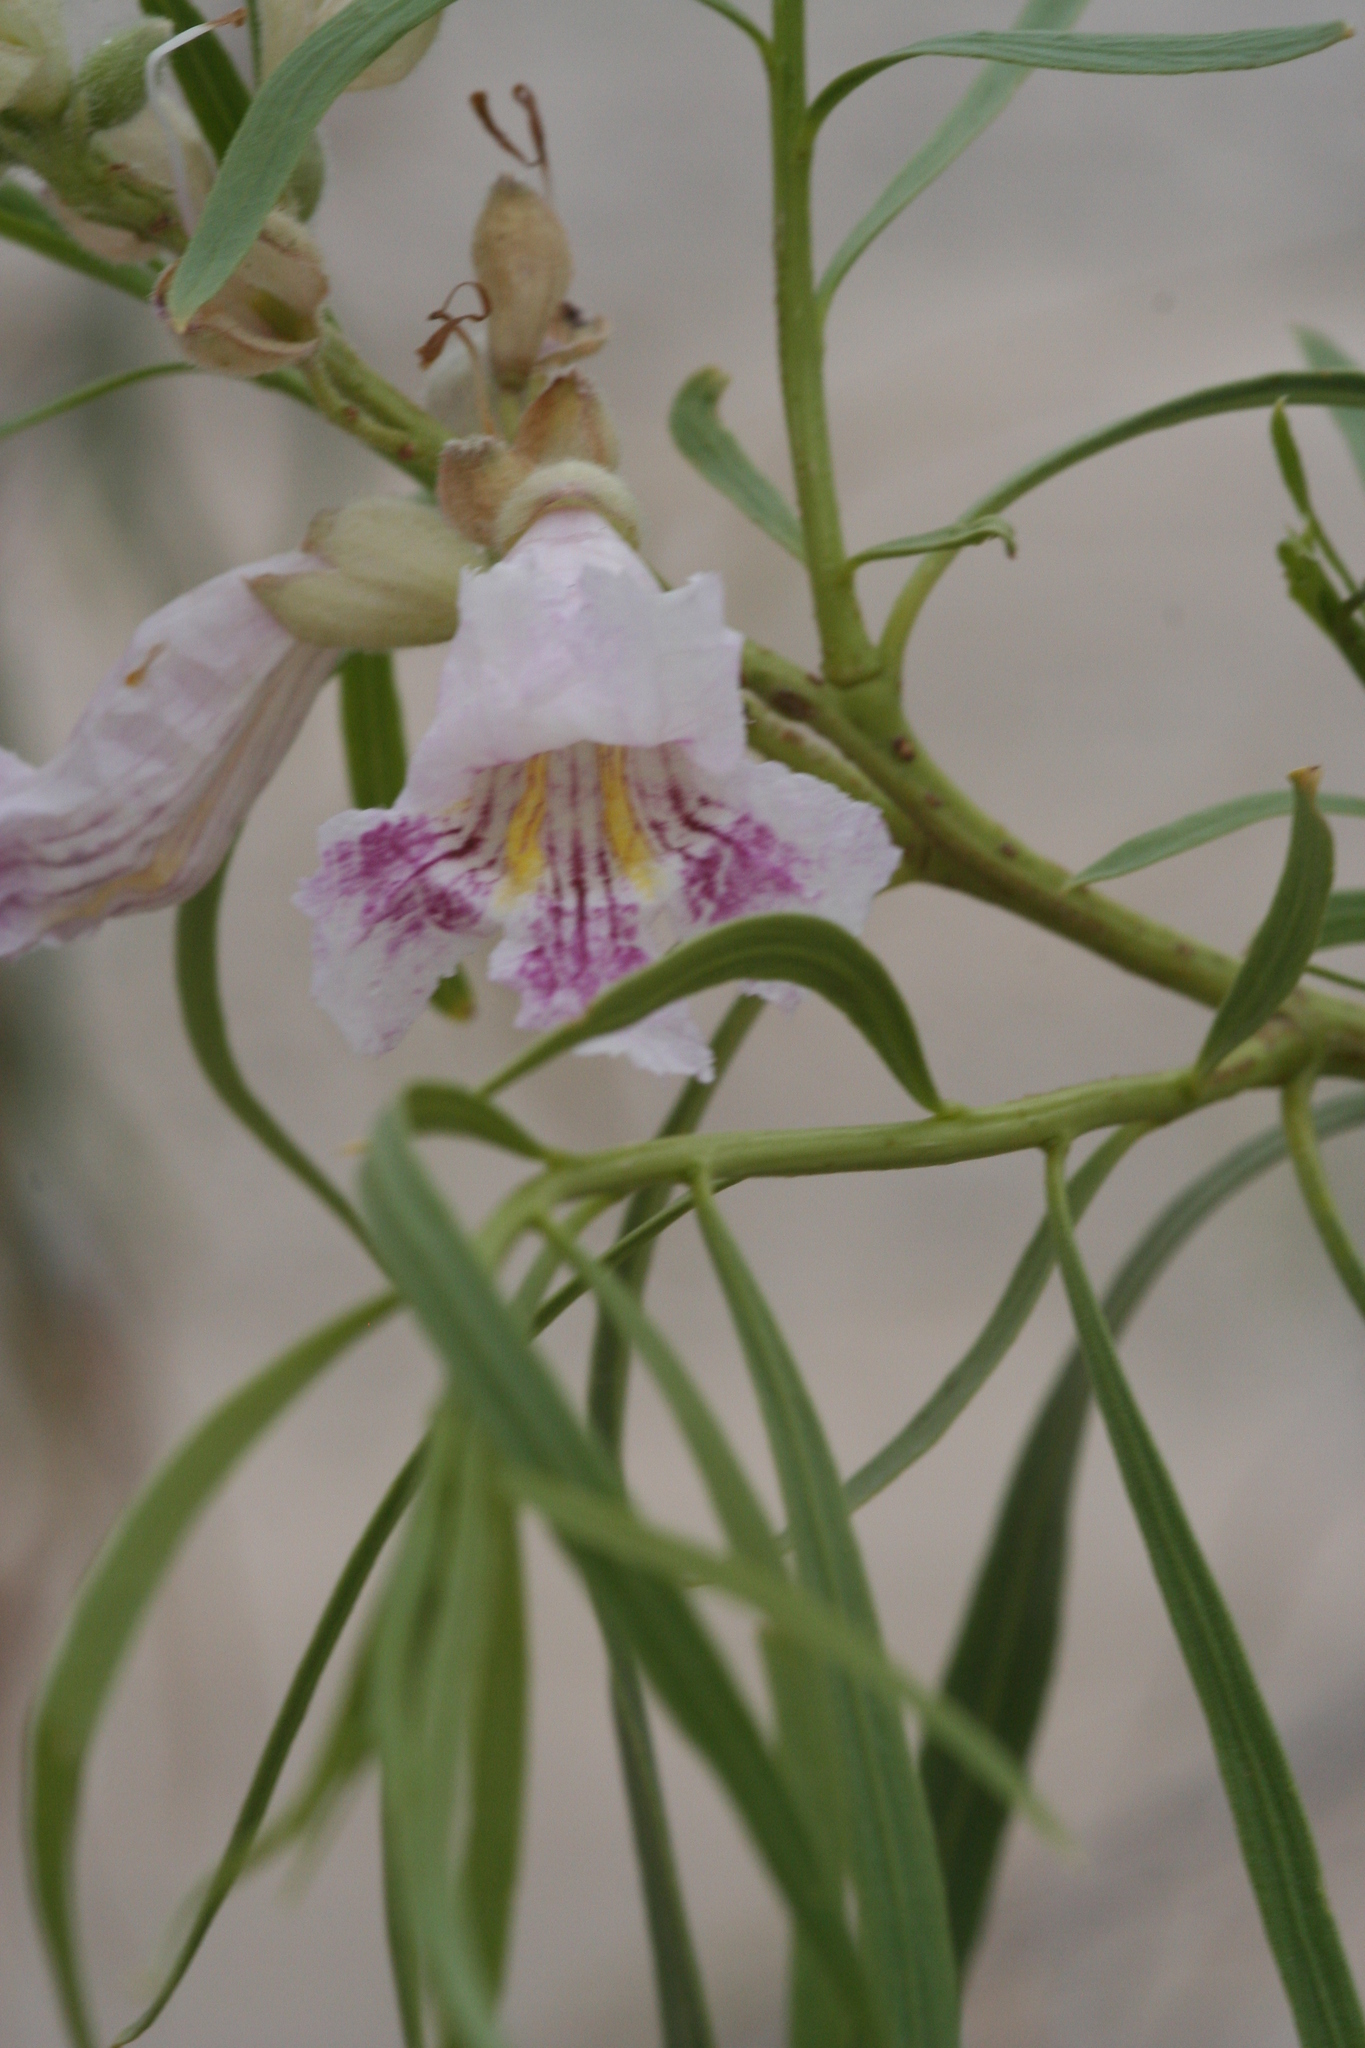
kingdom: Plantae
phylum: Tracheophyta
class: Magnoliopsida
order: Lamiales
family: Bignoniaceae
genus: Chilopsis
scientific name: Chilopsis linearis
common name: Desert-willow
